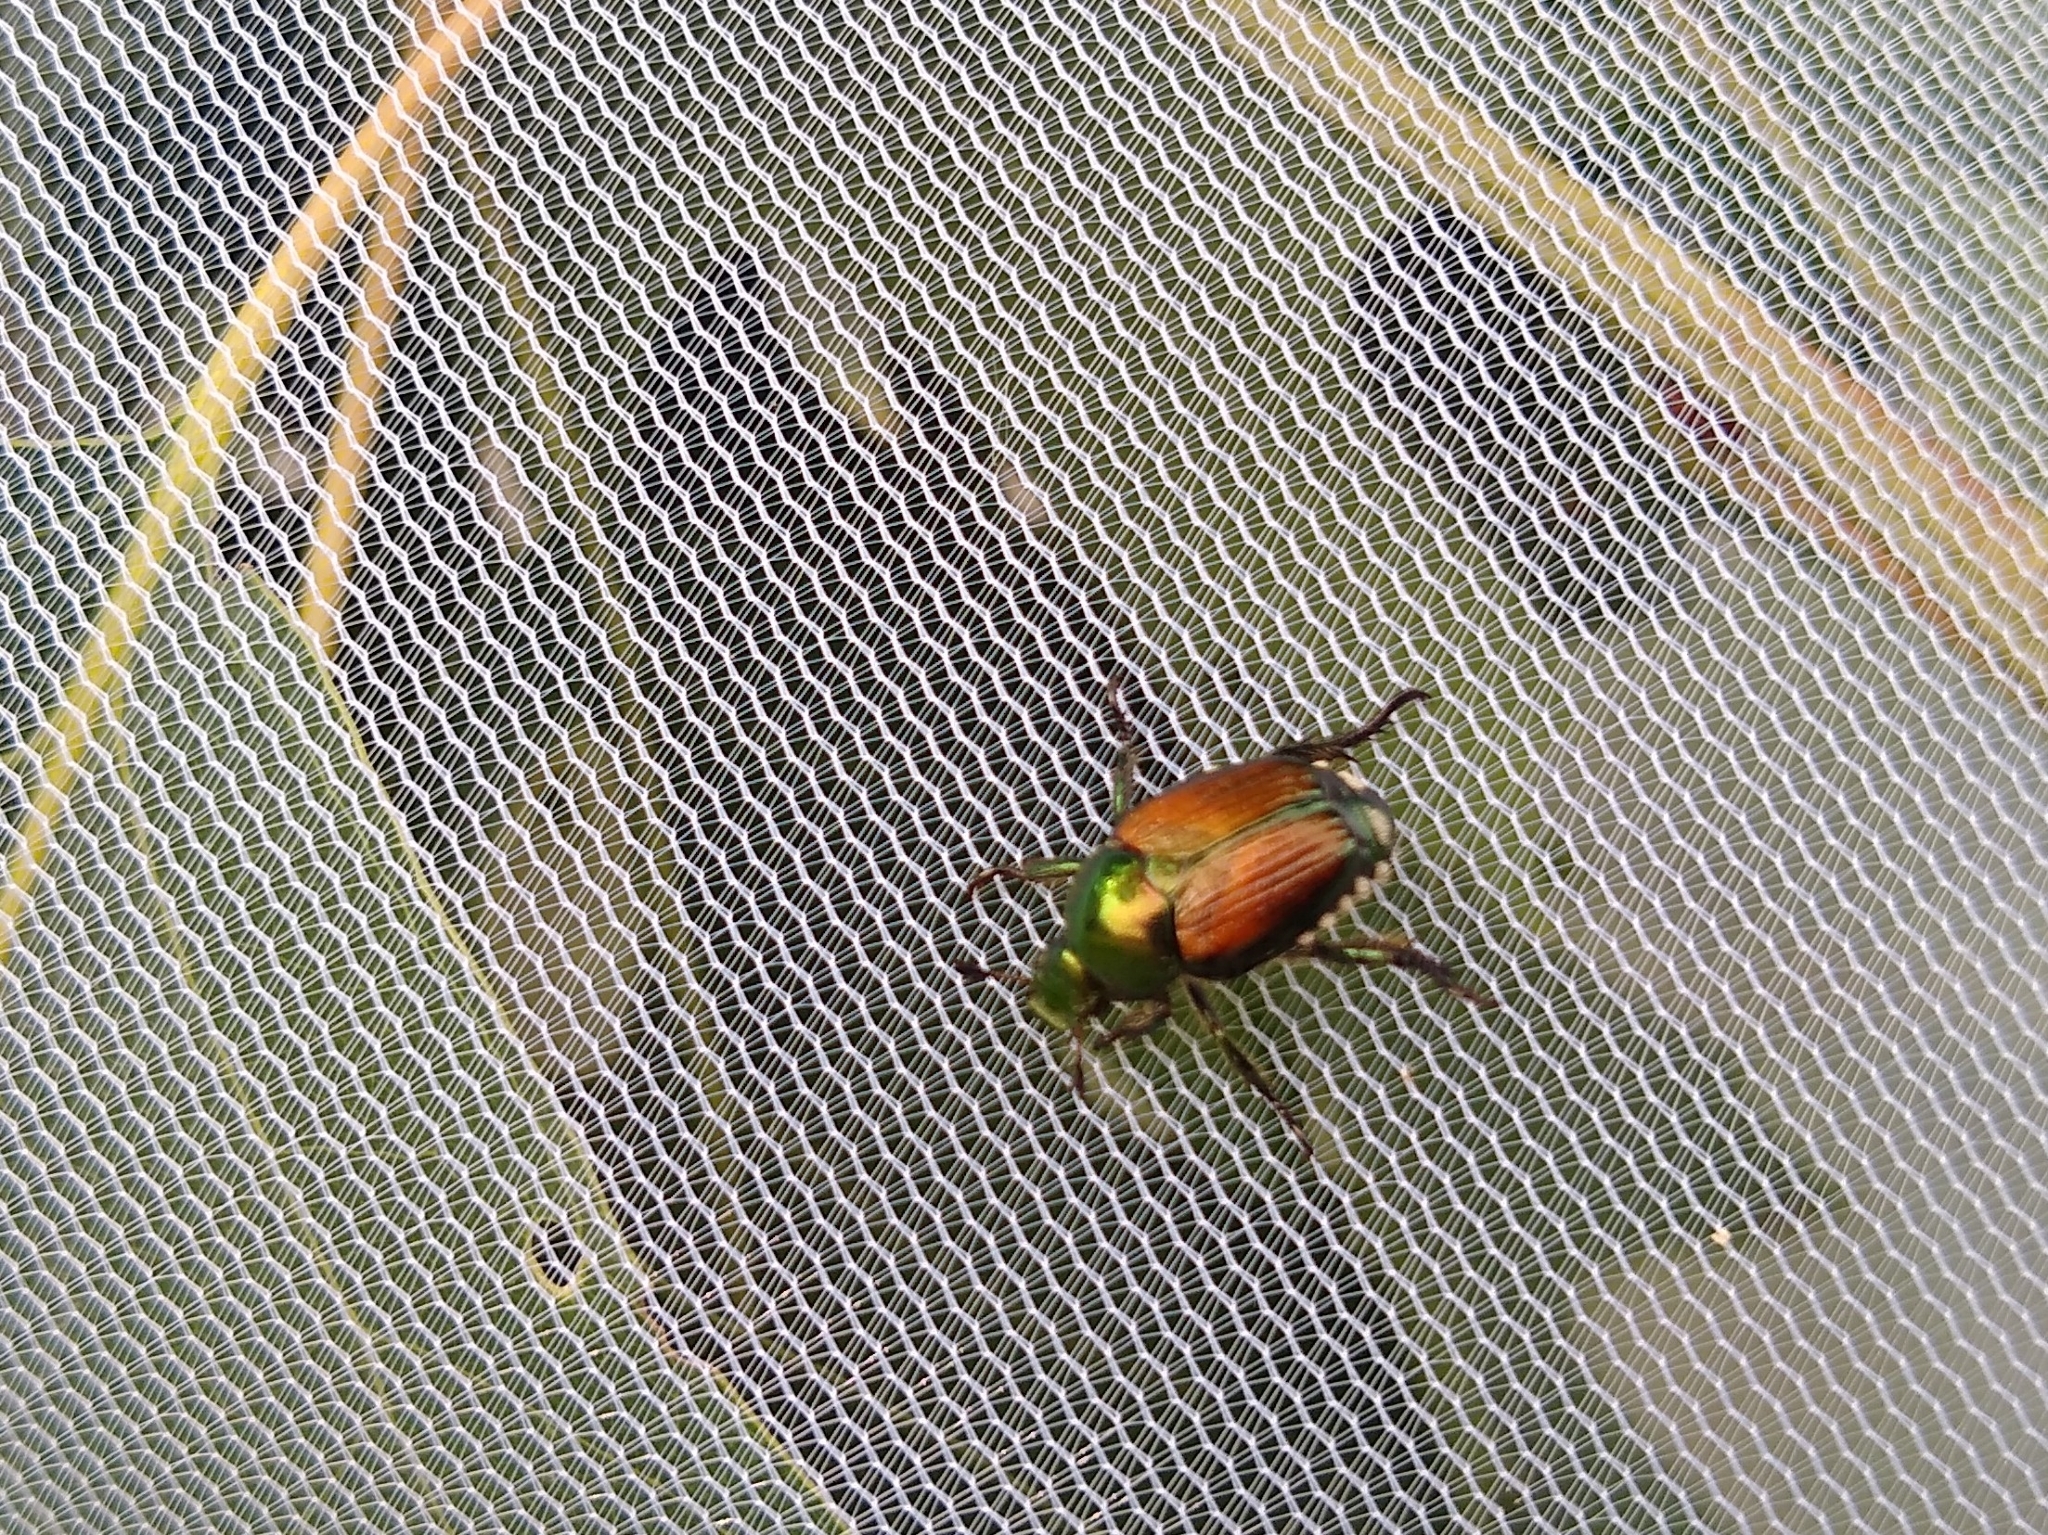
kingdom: Animalia
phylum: Arthropoda
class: Insecta
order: Coleoptera
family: Scarabaeidae
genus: Popillia
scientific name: Popillia japonica
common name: Japanese beetle
